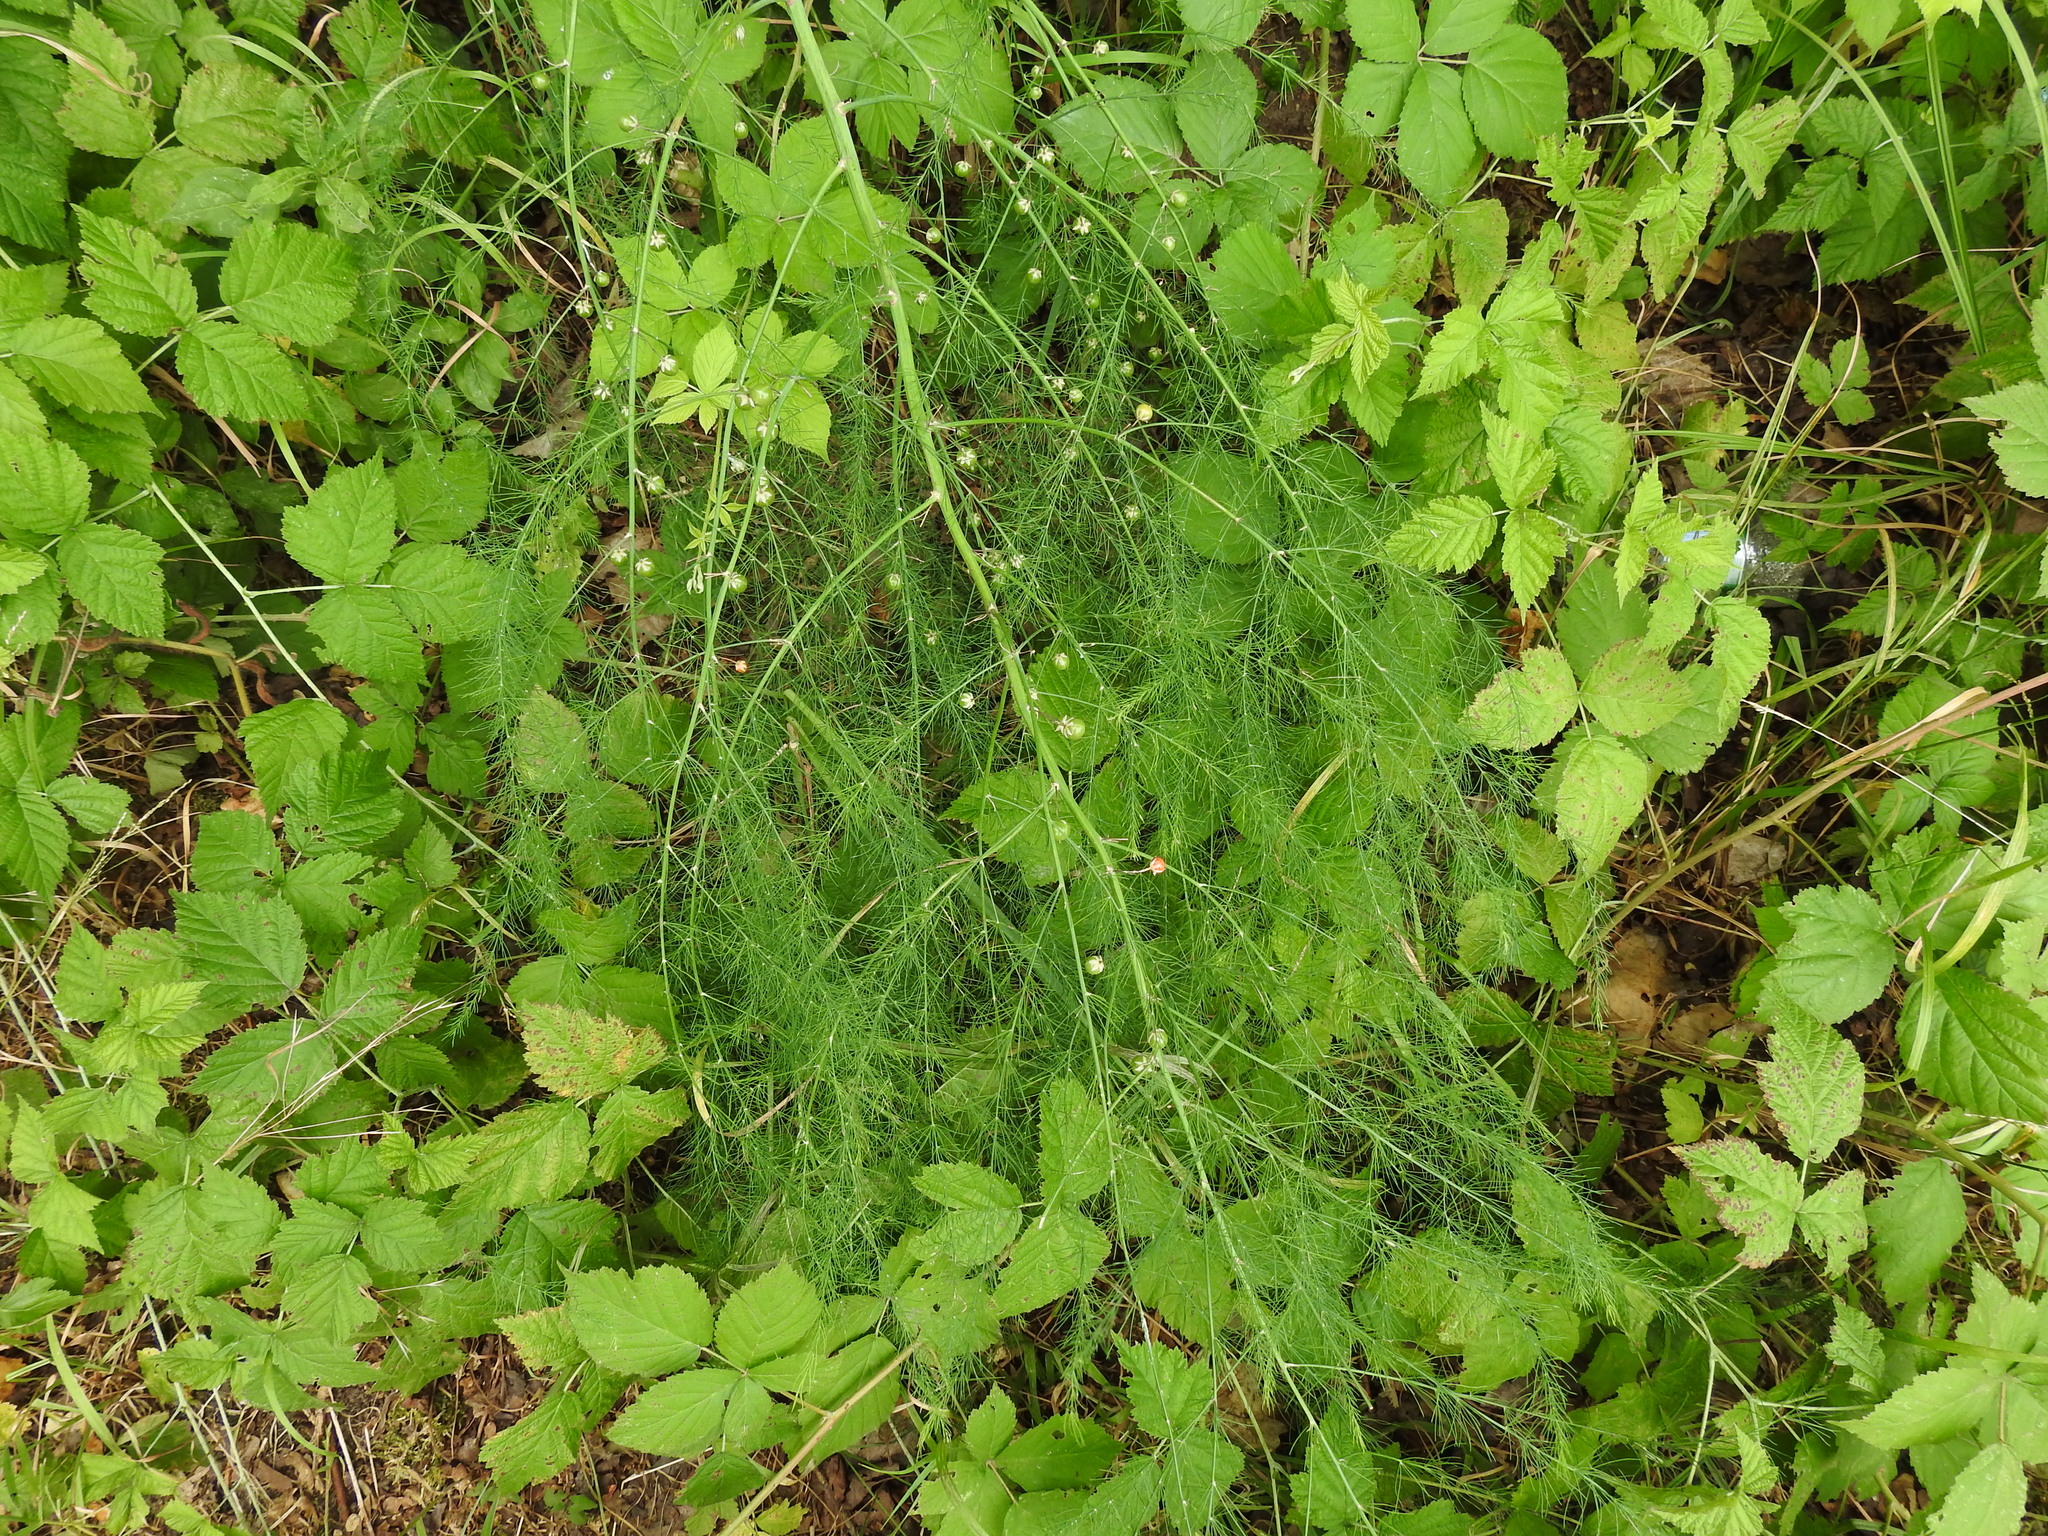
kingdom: Plantae
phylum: Tracheophyta
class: Liliopsida
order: Asparagales
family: Asparagaceae
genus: Asparagus
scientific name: Asparagus officinalis
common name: Garden asparagus
